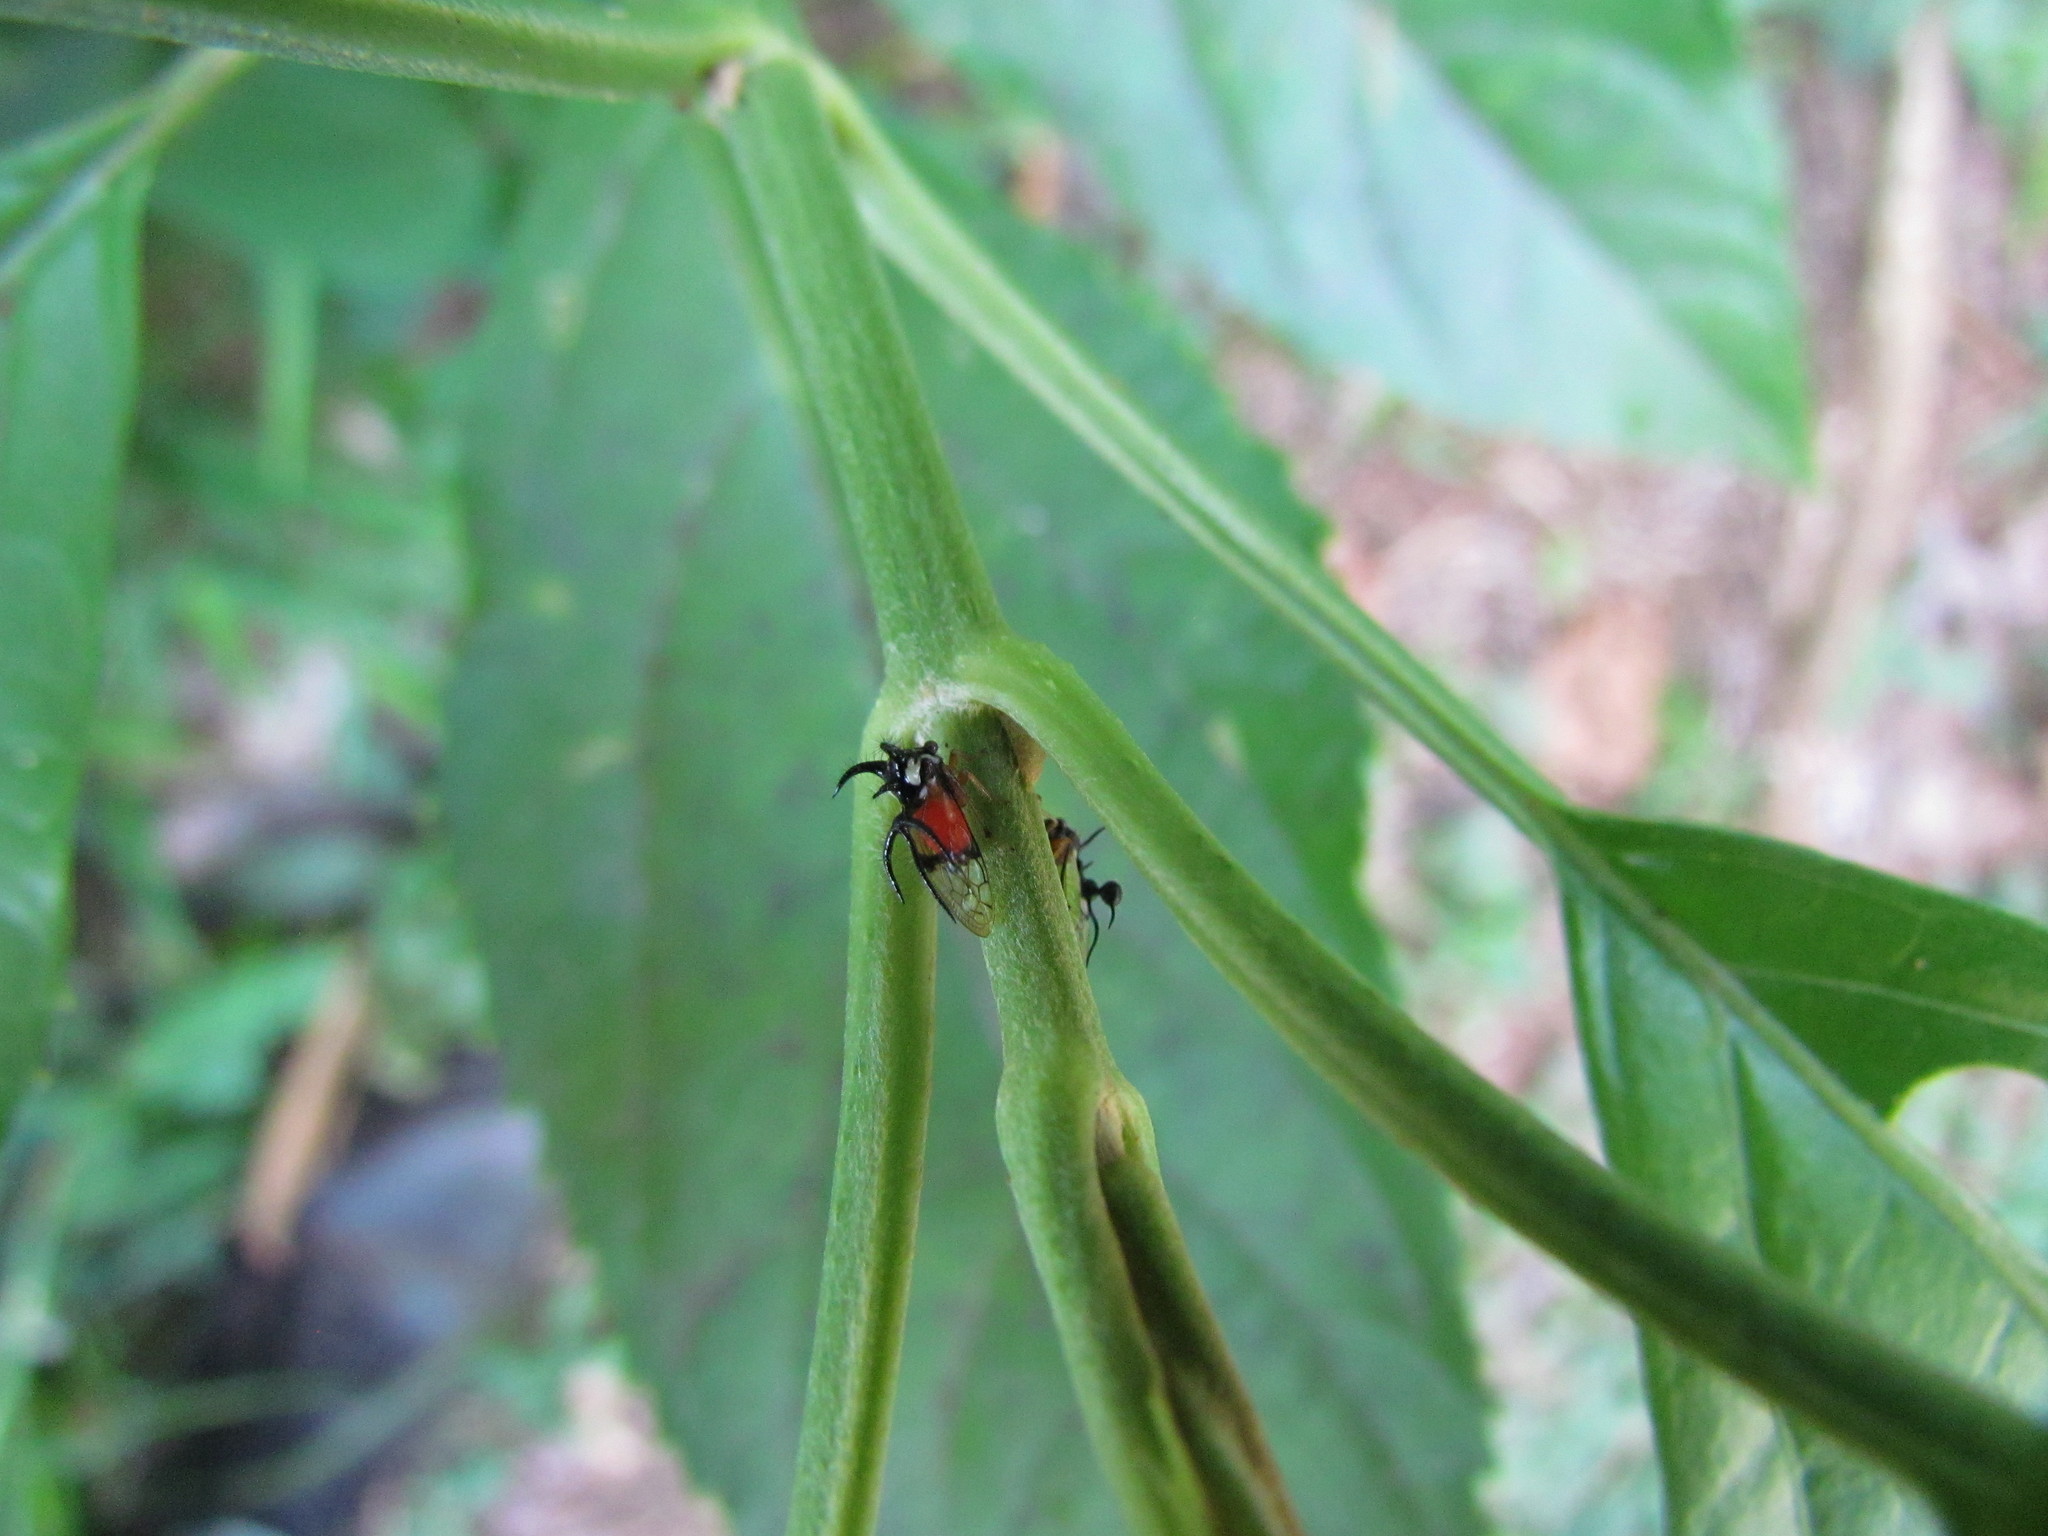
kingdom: Animalia
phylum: Arthropoda
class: Insecta
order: Hemiptera
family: Membracidae
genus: Cyphonia
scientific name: Cyphonia trifida
